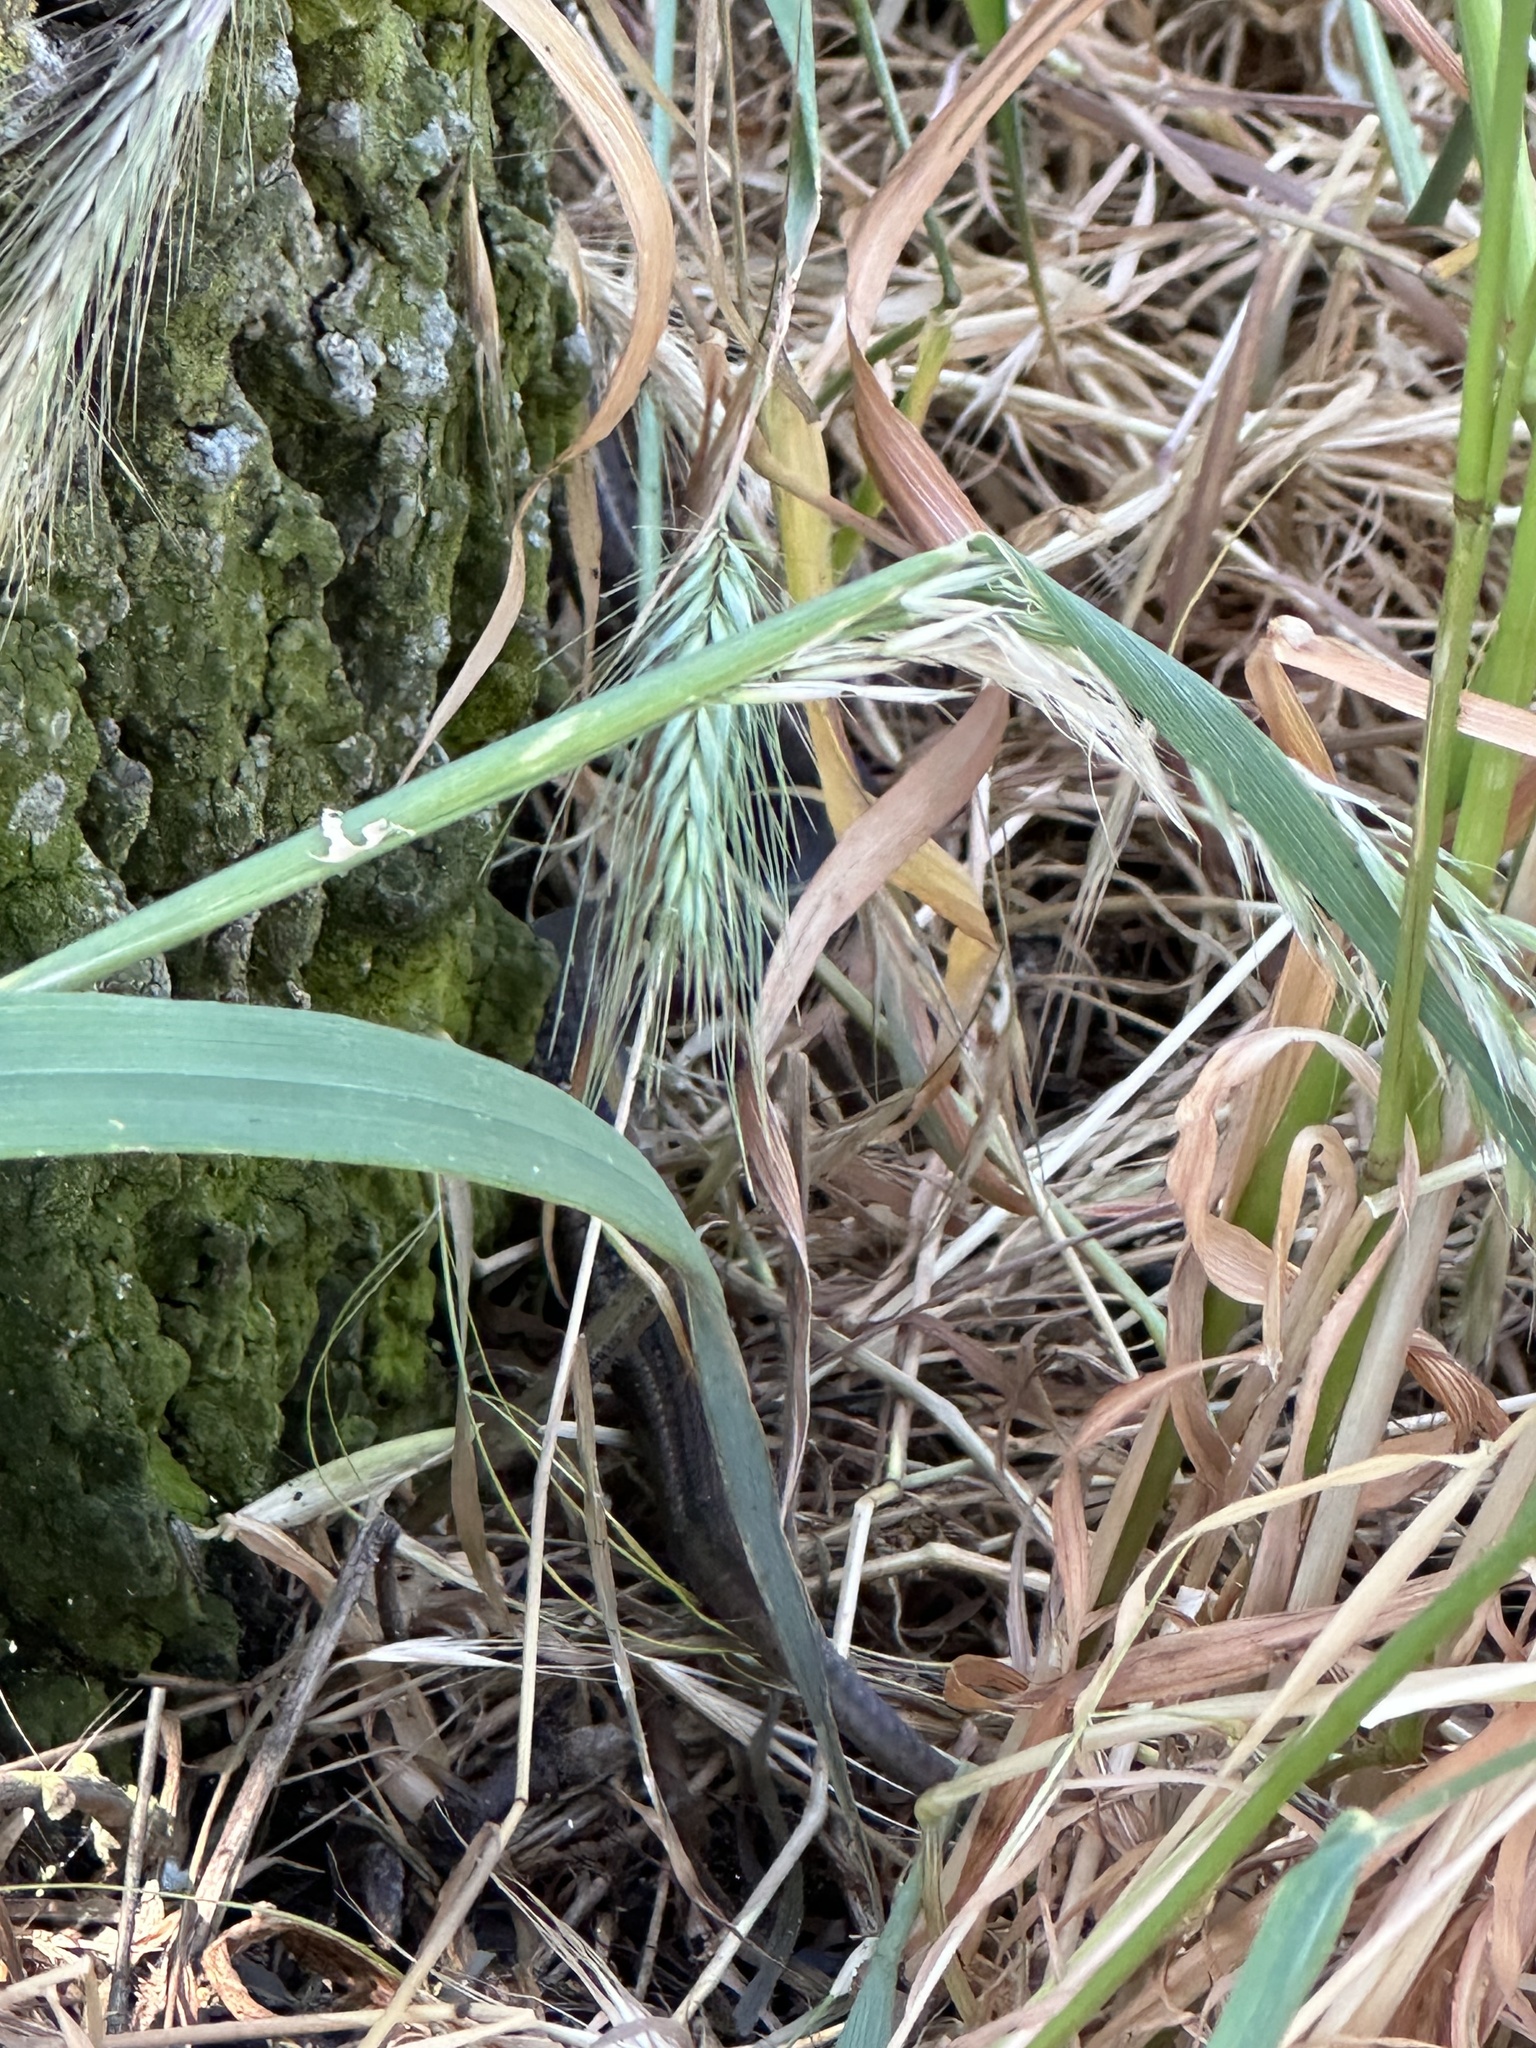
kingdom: Animalia
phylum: Chordata
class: Squamata
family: Colubridae
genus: Thamnophis
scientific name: Thamnophis ordinoides
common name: Northwestern garter snake
